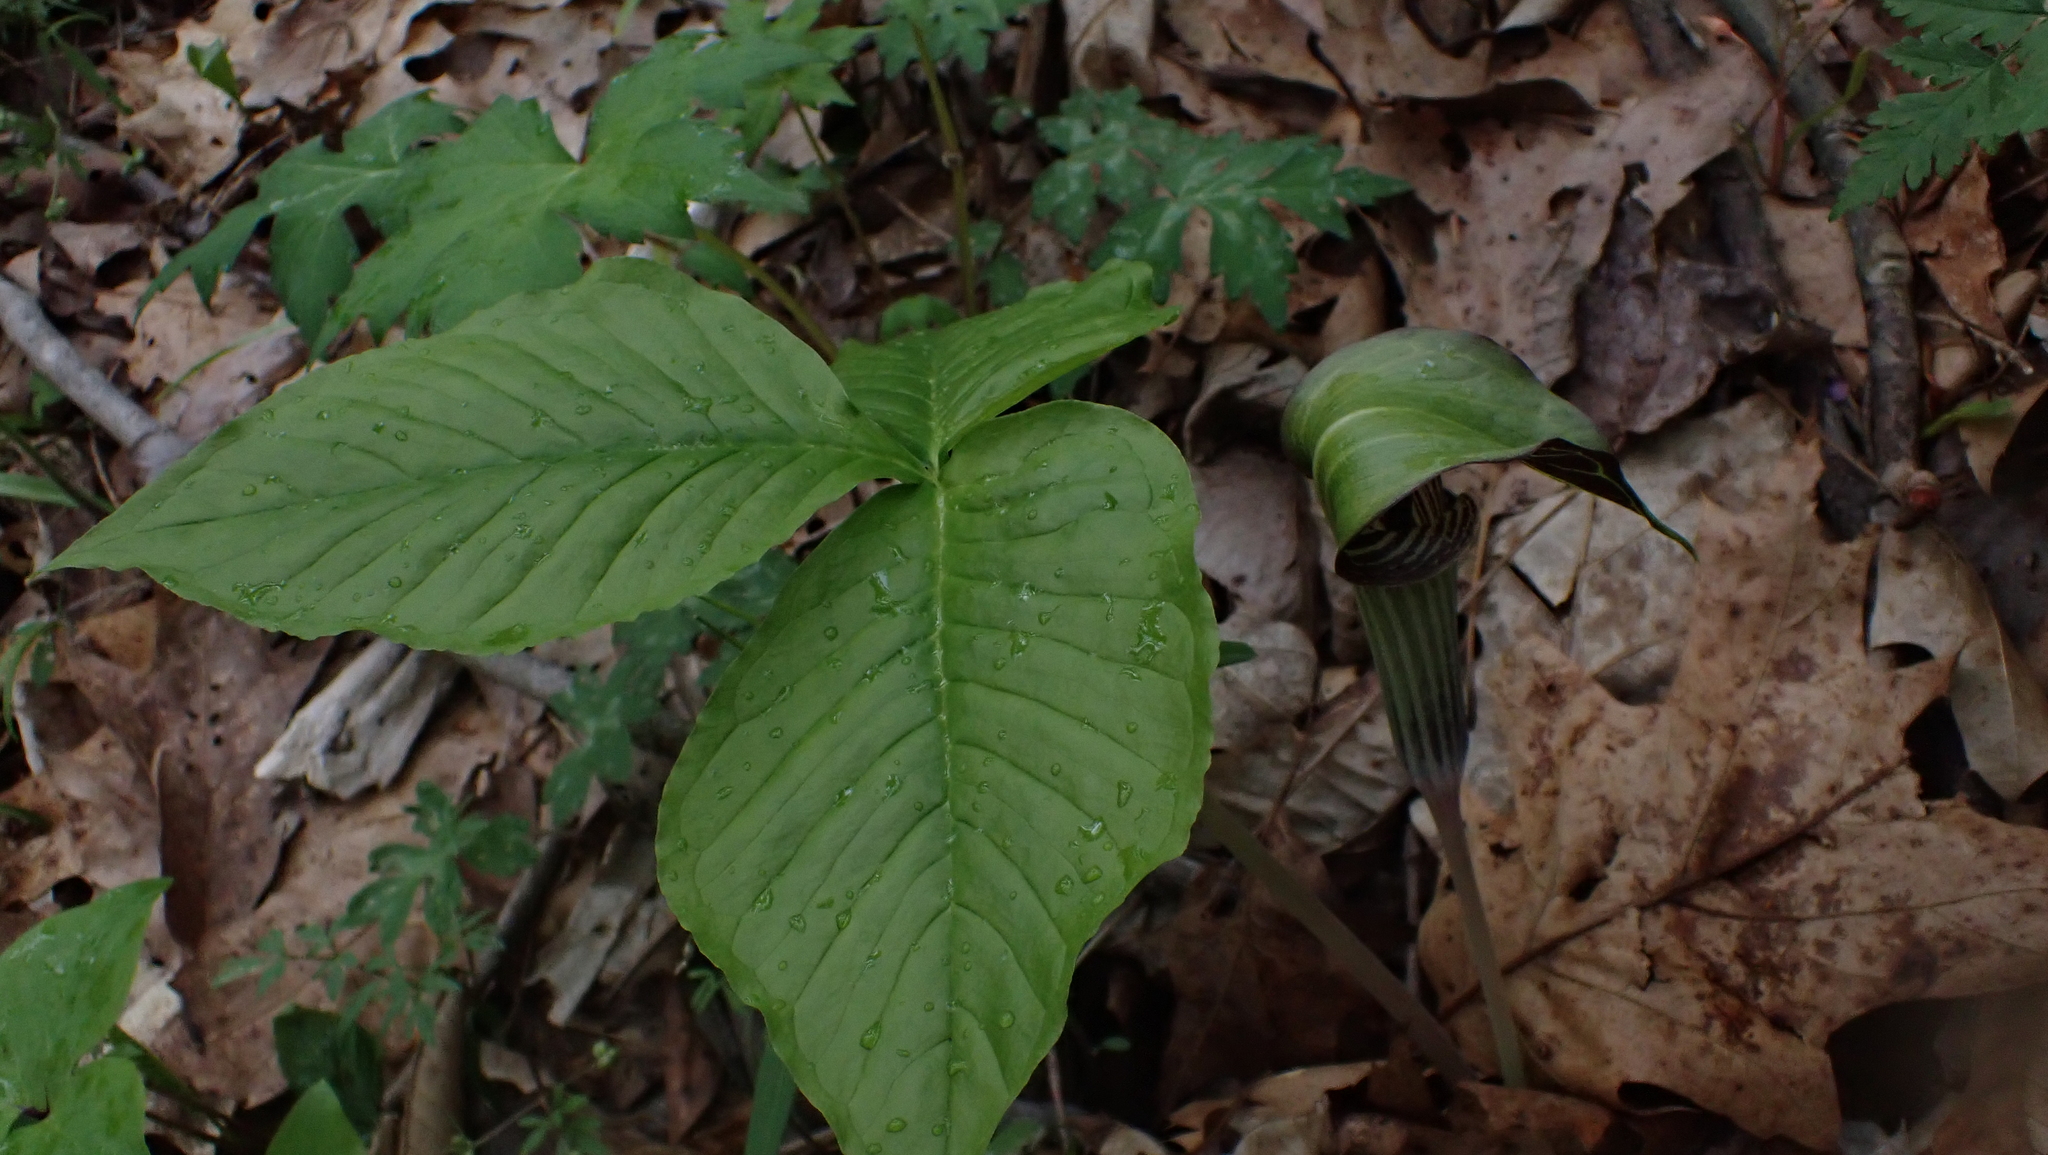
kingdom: Plantae
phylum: Tracheophyta
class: Liliopsida
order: Alismatales
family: Araceae
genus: Arisaema
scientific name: Arisaema triphyllum
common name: Jack-in-the-pulpit
